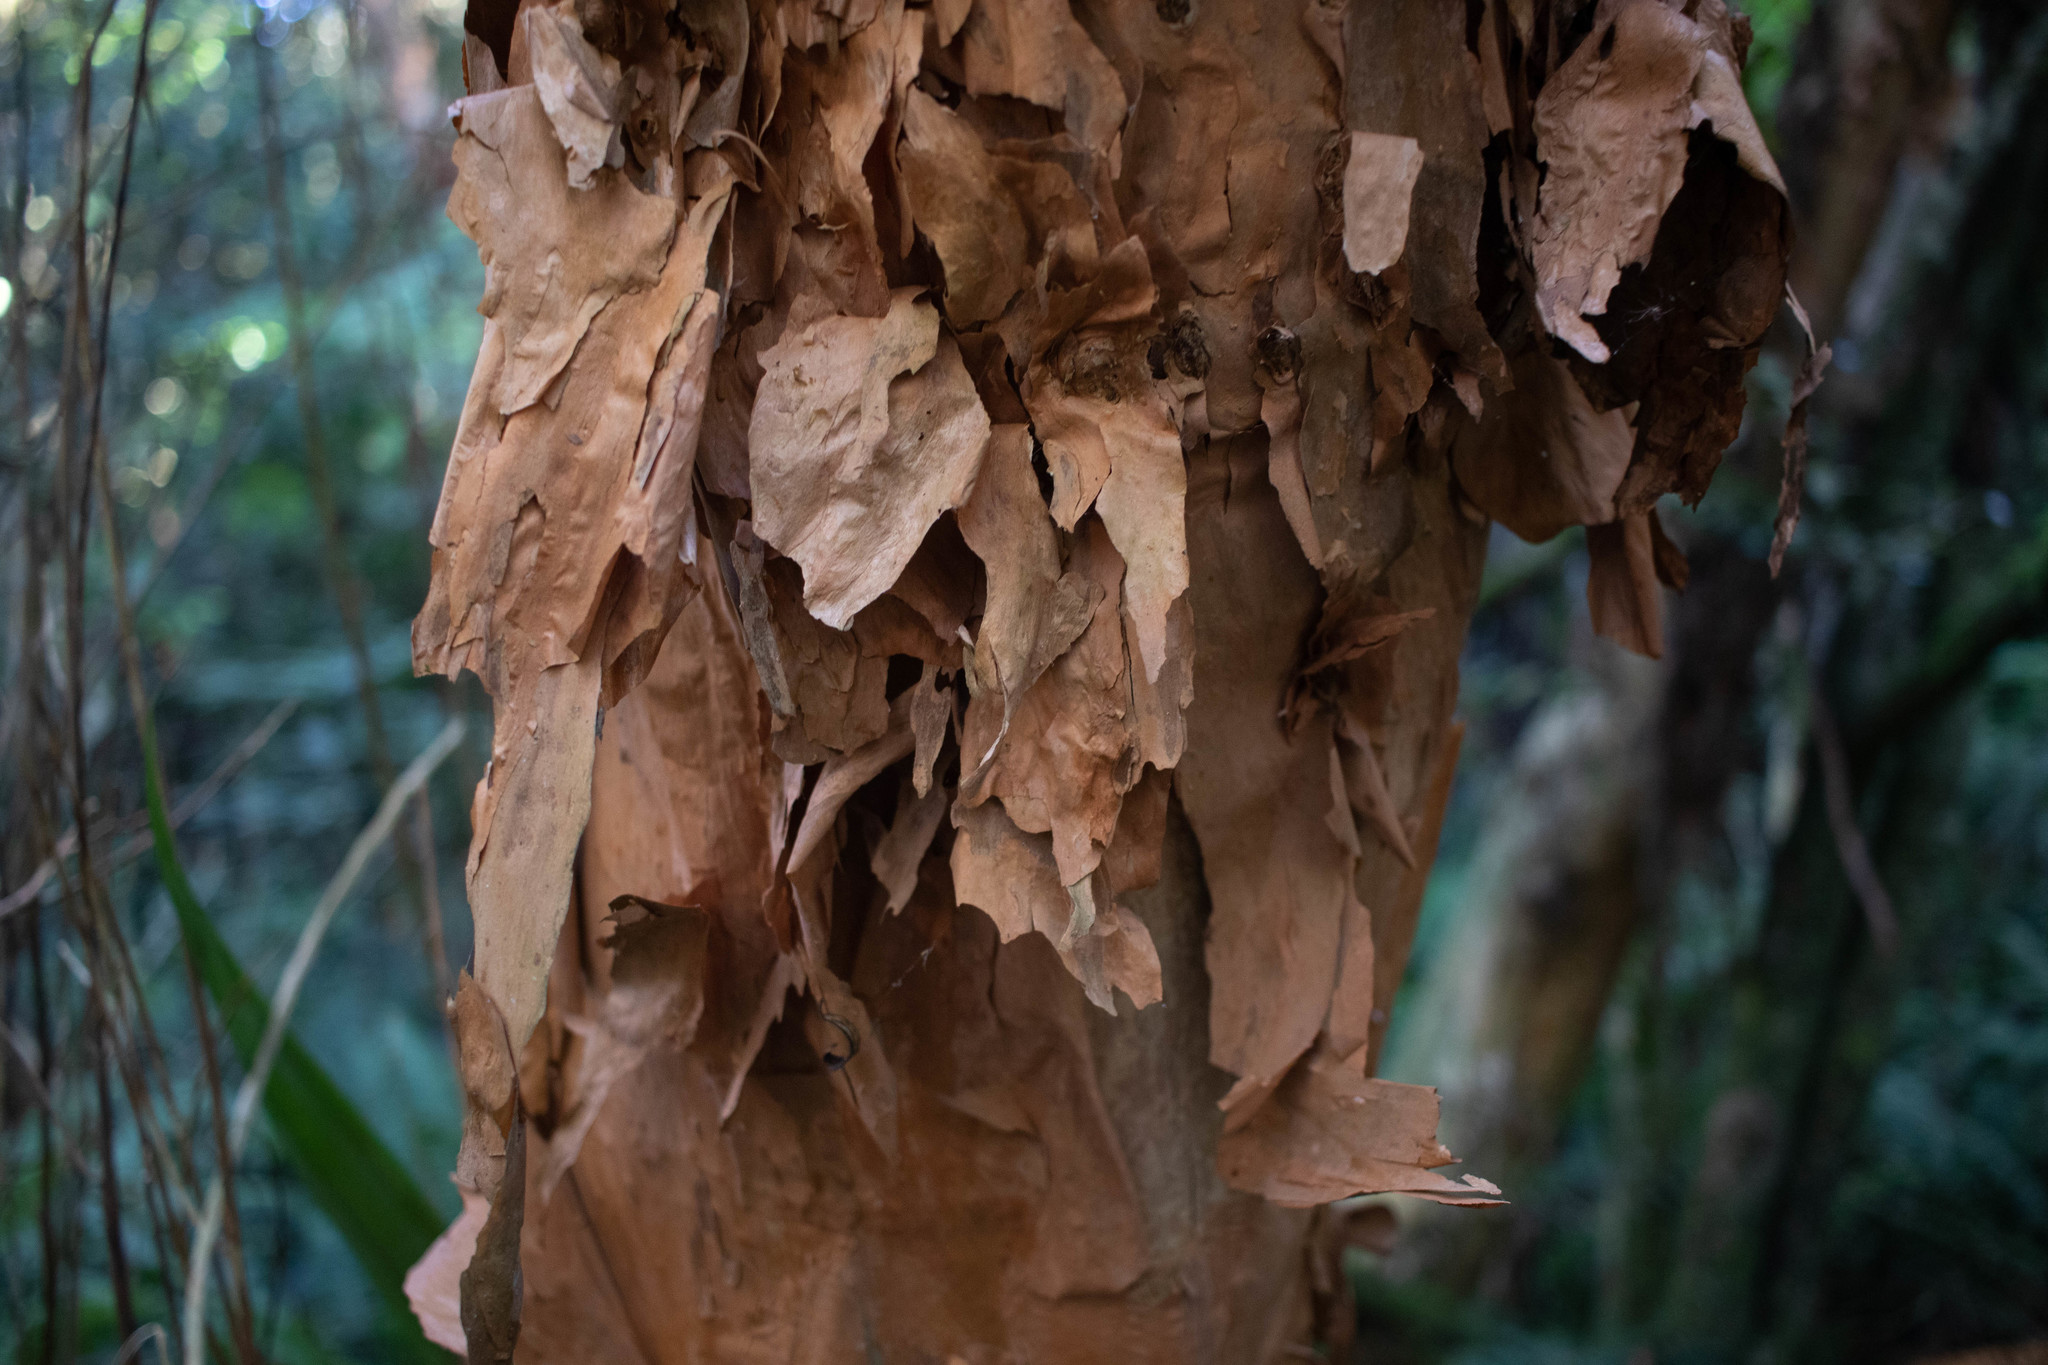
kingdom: Plantae
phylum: Tracheophyta
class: Magnoliopsida
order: Myrtales
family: Onagraceae
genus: Fuchsia
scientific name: Fuchsia excorticata
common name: Tree fuchsia
